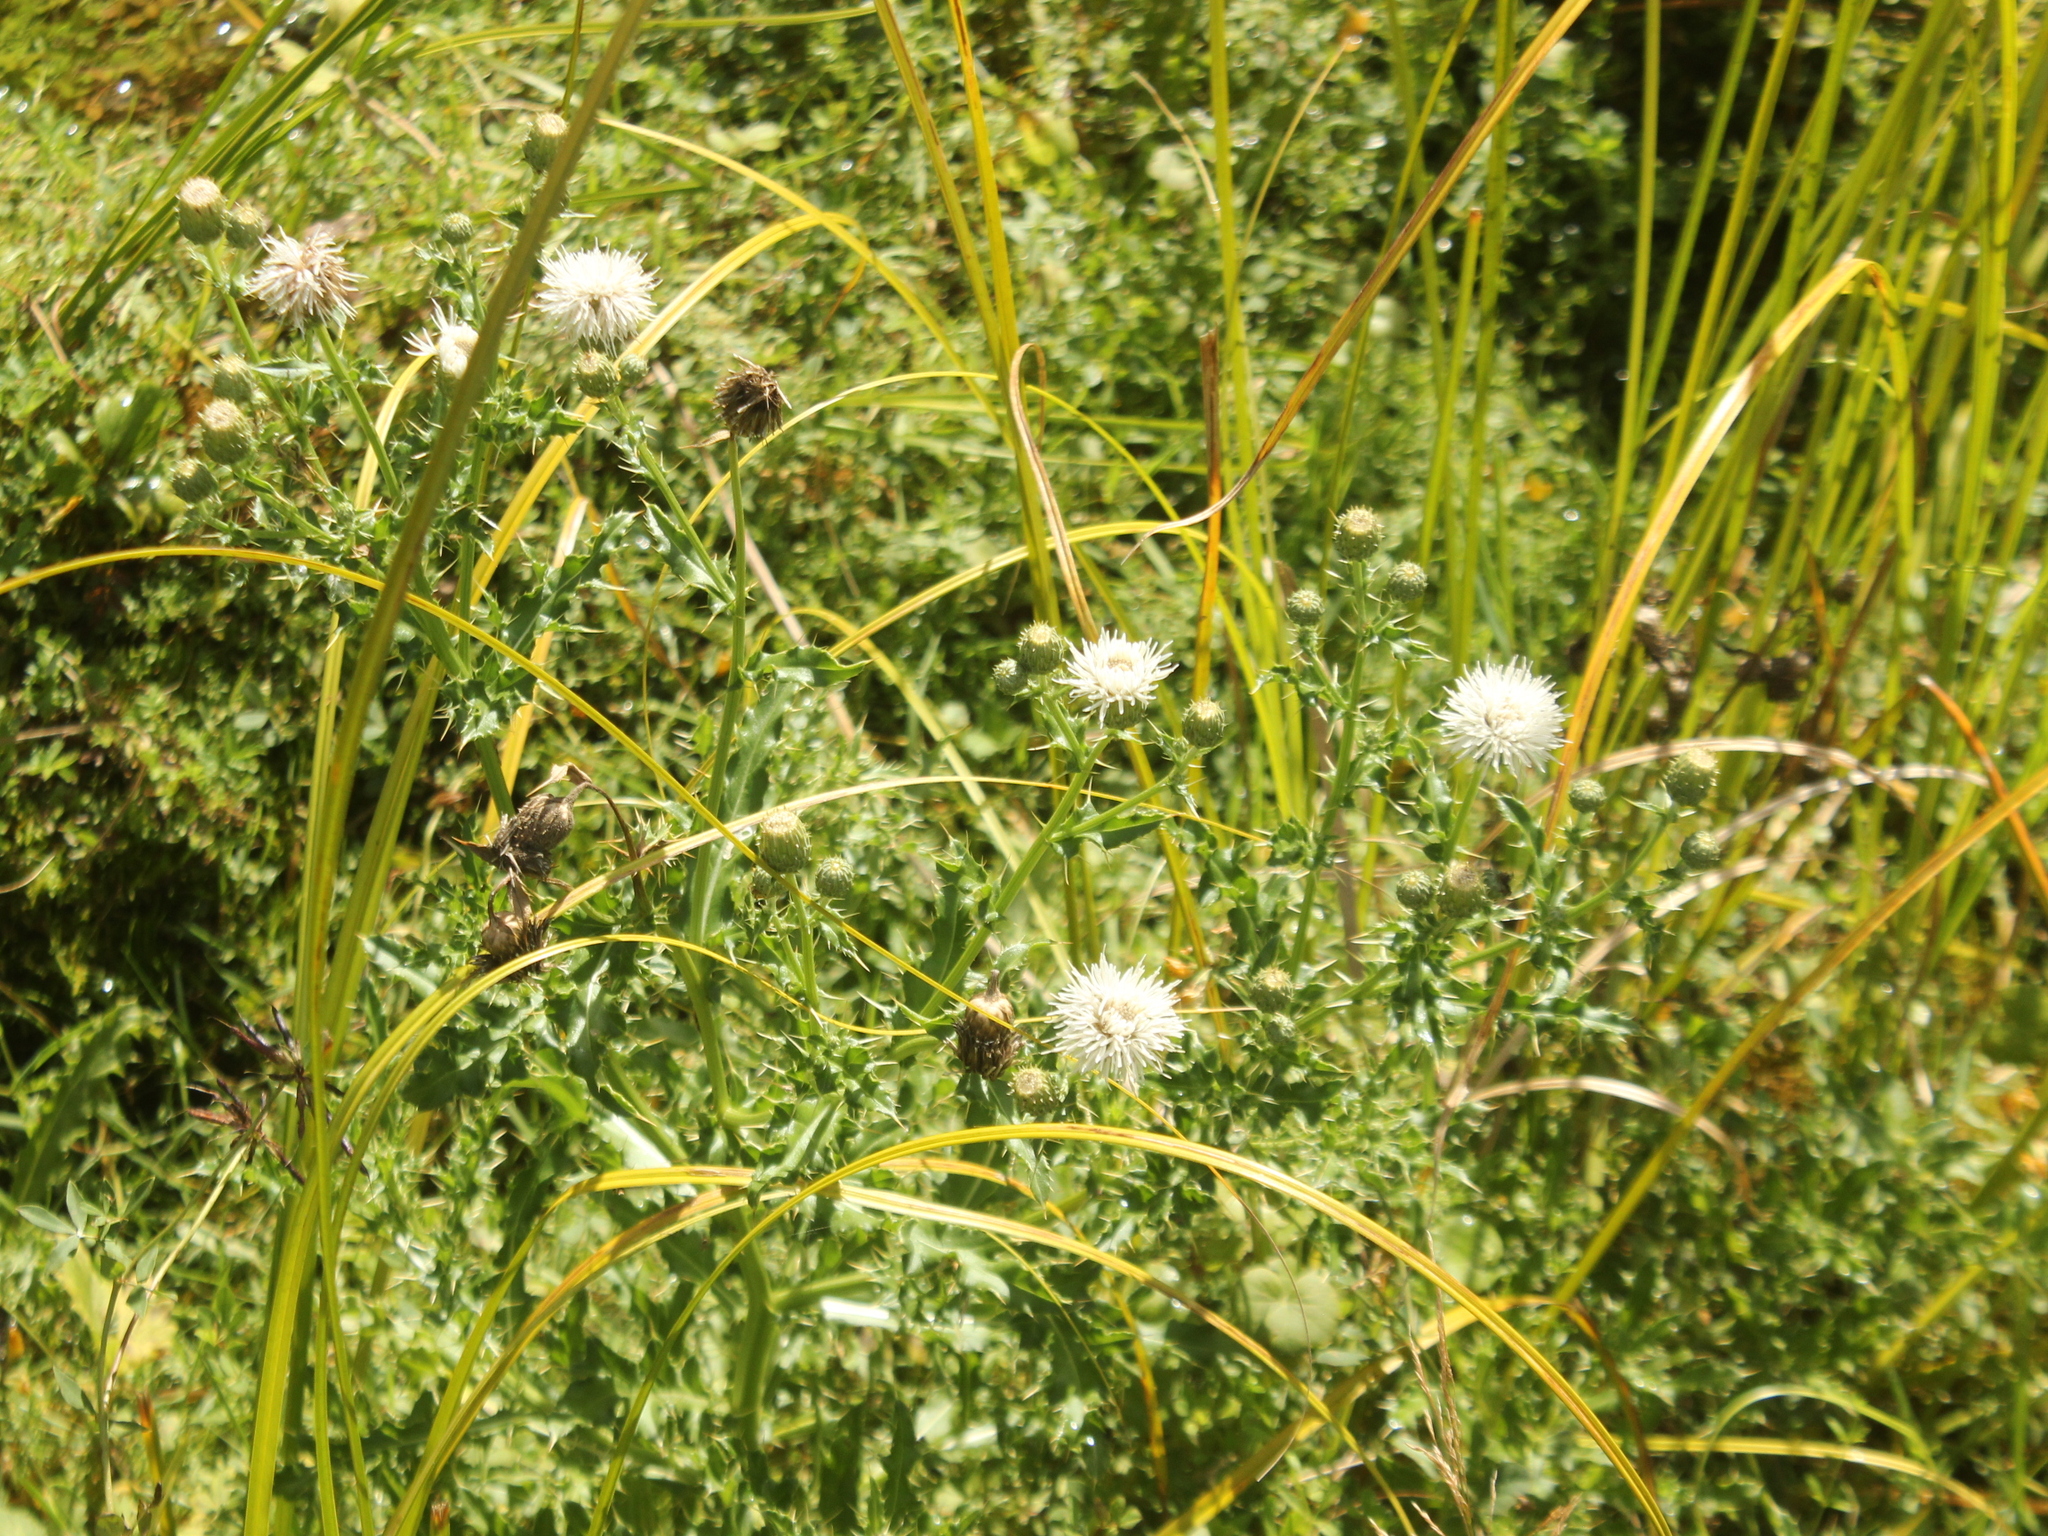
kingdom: Plantae
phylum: Tracheophyta
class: Magnoliopsida
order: Asterales
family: Asteraceae
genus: Cirsium
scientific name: Cirsium arvense
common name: Creeping thistle
